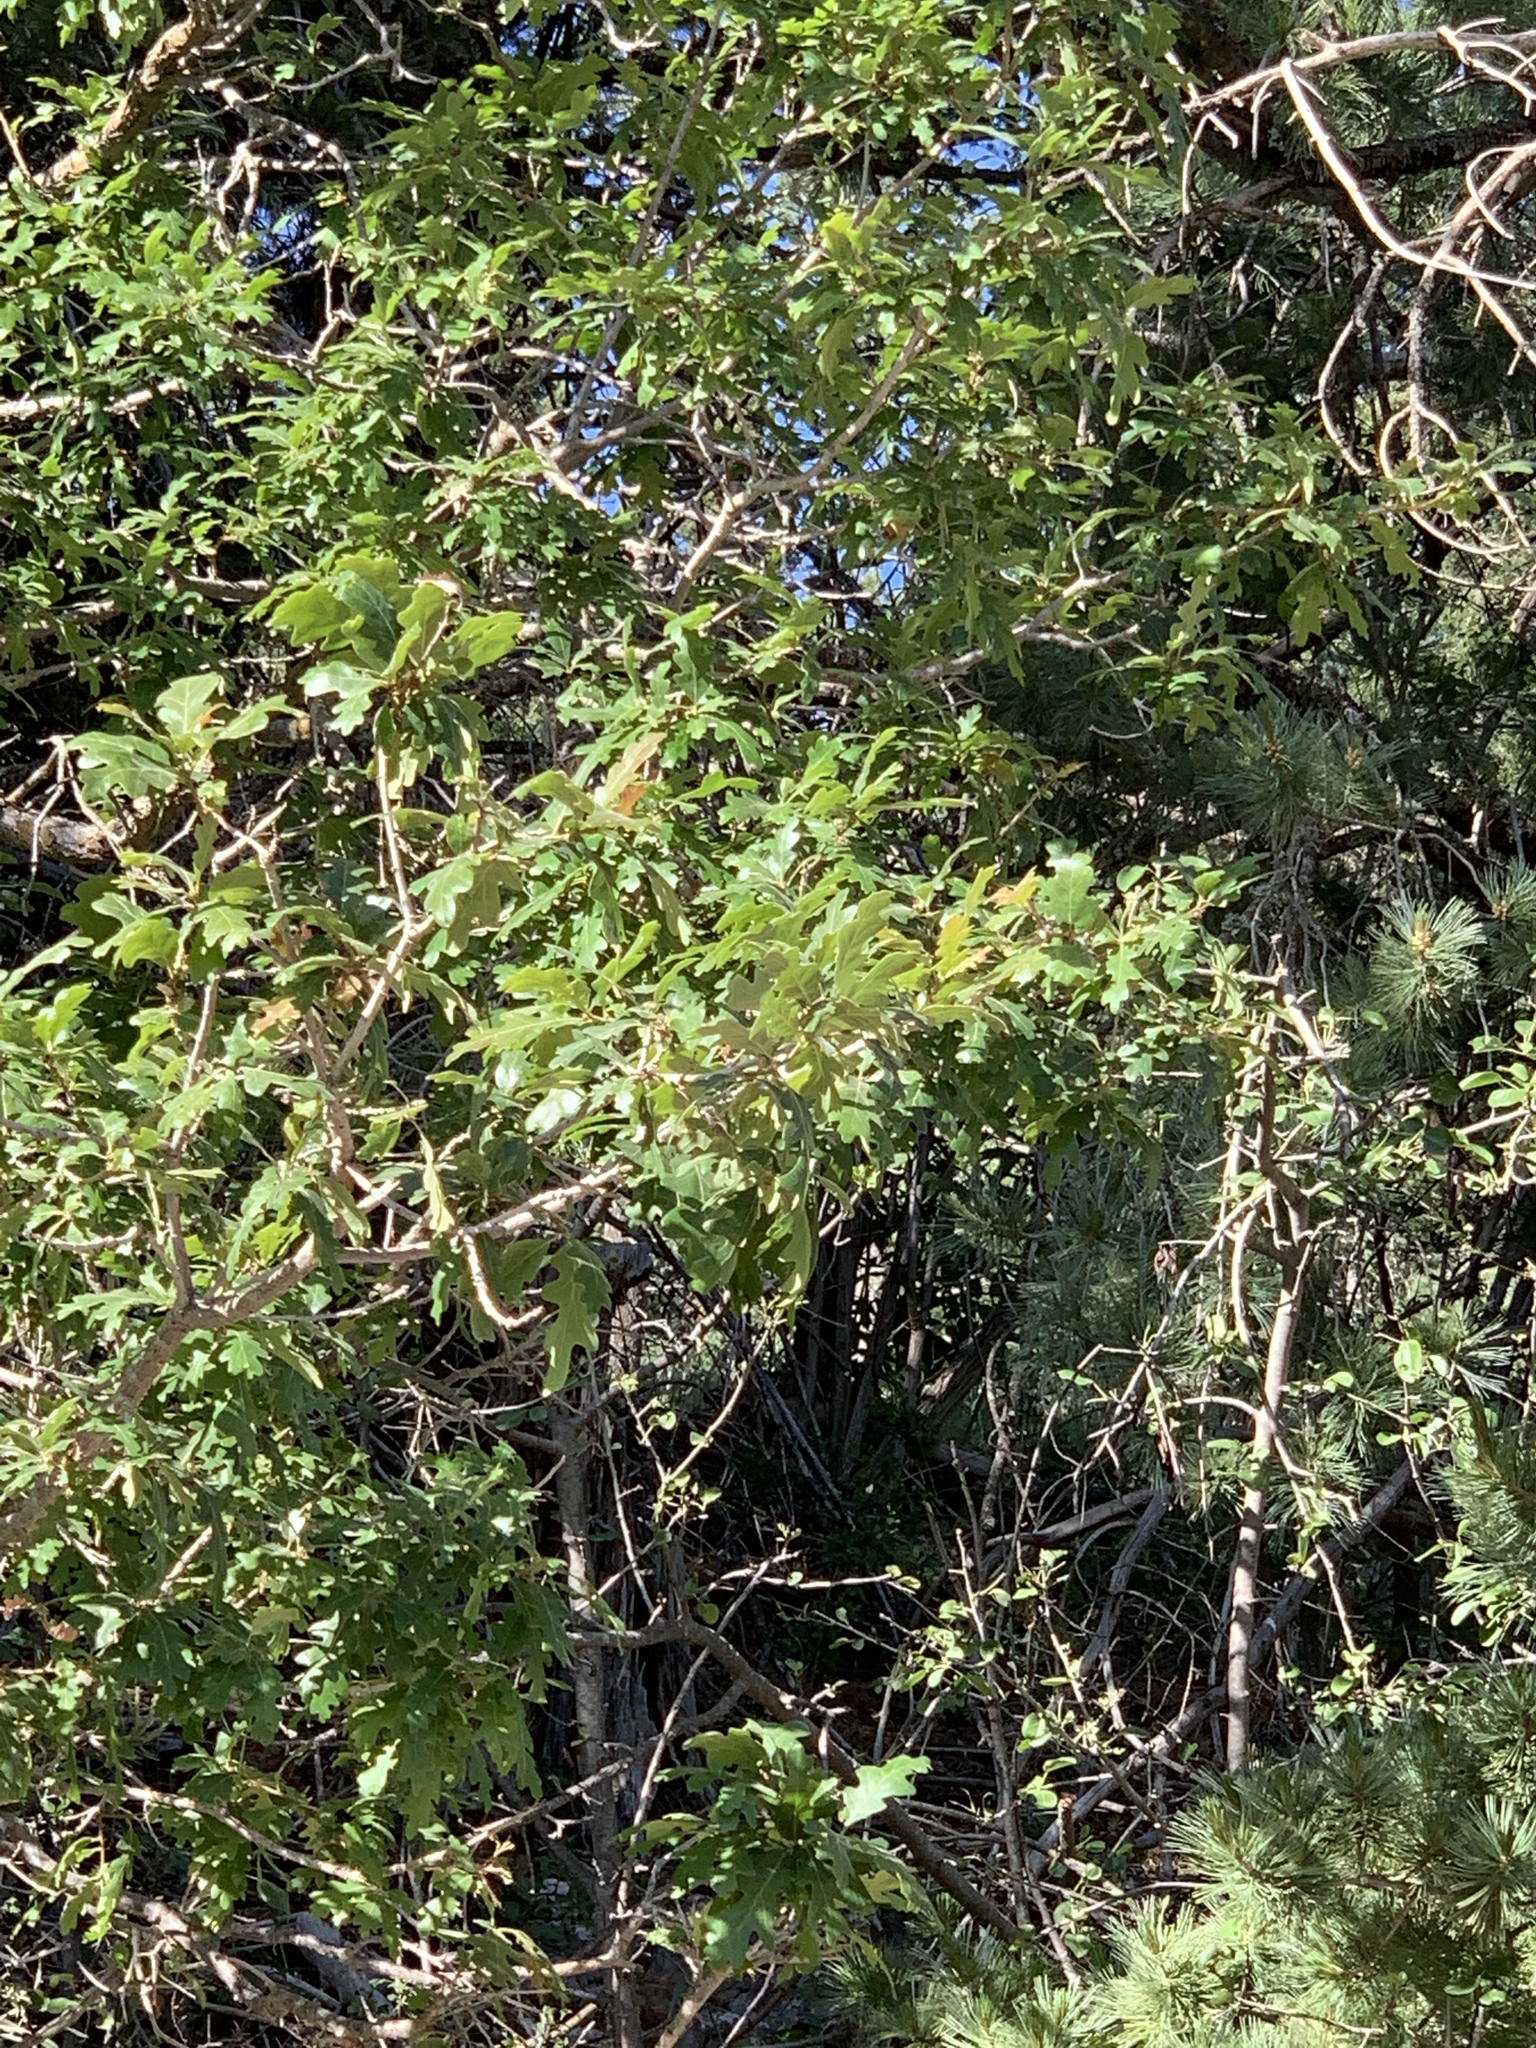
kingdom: Plantae
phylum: Tracheophyta
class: Magnoliopsida
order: Fagales
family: Fagaceae
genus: Quercus
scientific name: Quercus gambelii
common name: Gambel oak
